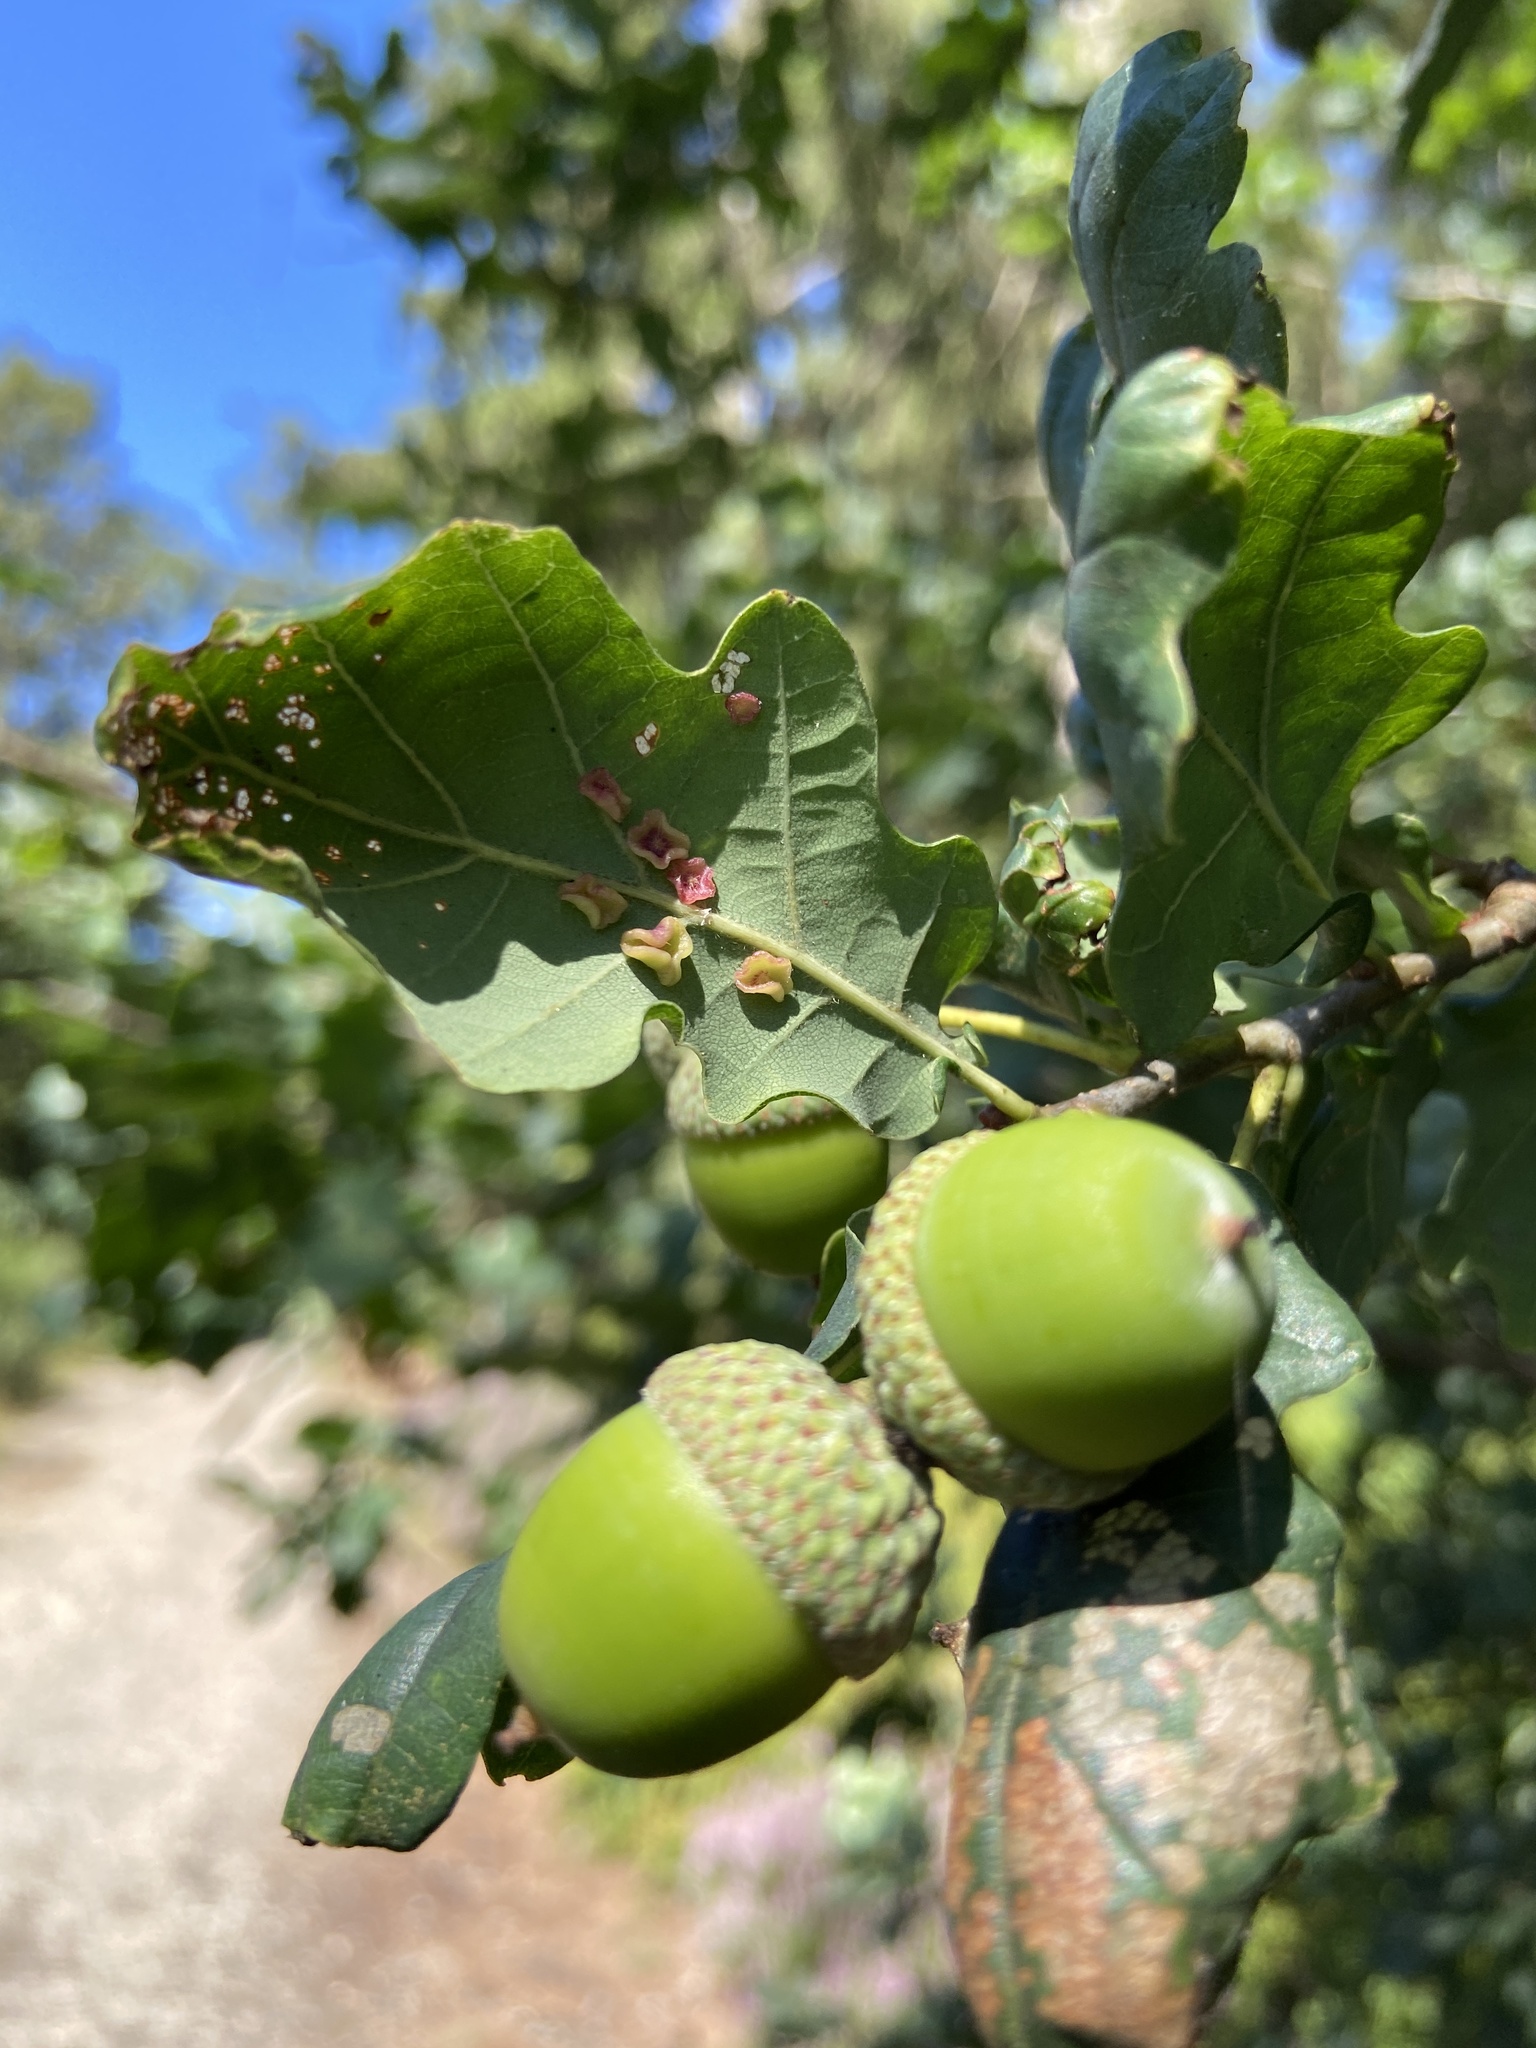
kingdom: Animalia
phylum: Arthropoda
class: Insecta
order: Hymenoptera
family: Cynipidae
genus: Neuroterus
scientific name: Neuroterus albipes
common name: Smooth spangle gall
